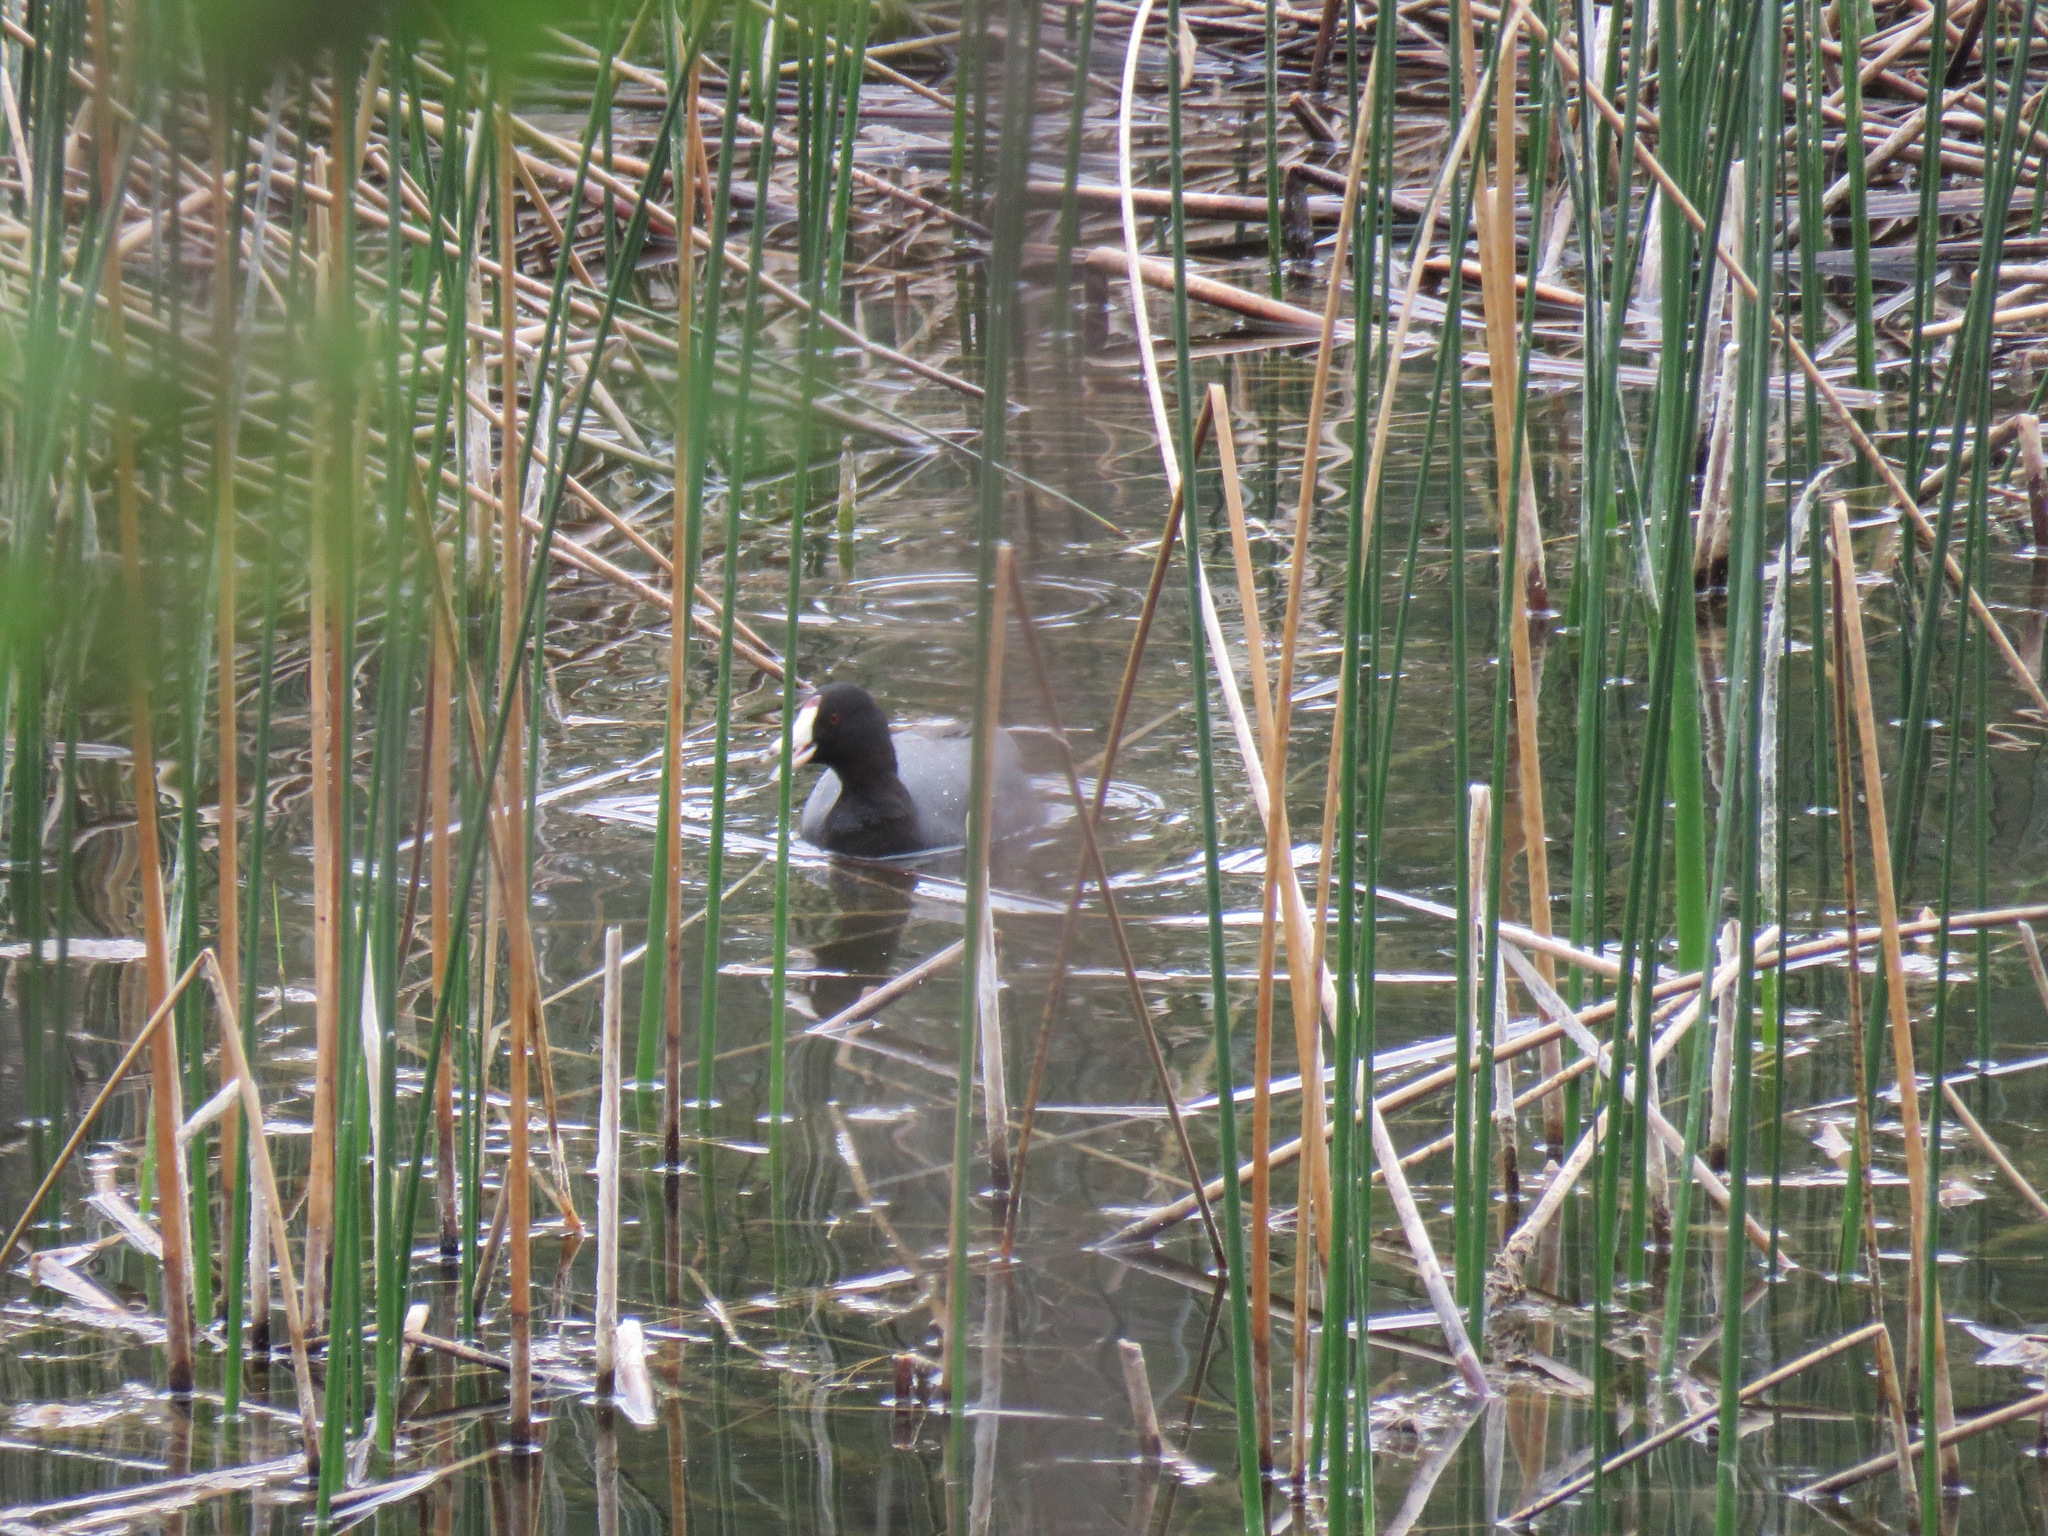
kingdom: Animalia
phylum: Chordata
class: Aves
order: Gruiformes
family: Rallidae
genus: Fulica
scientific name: Fulica americana
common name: American coot
